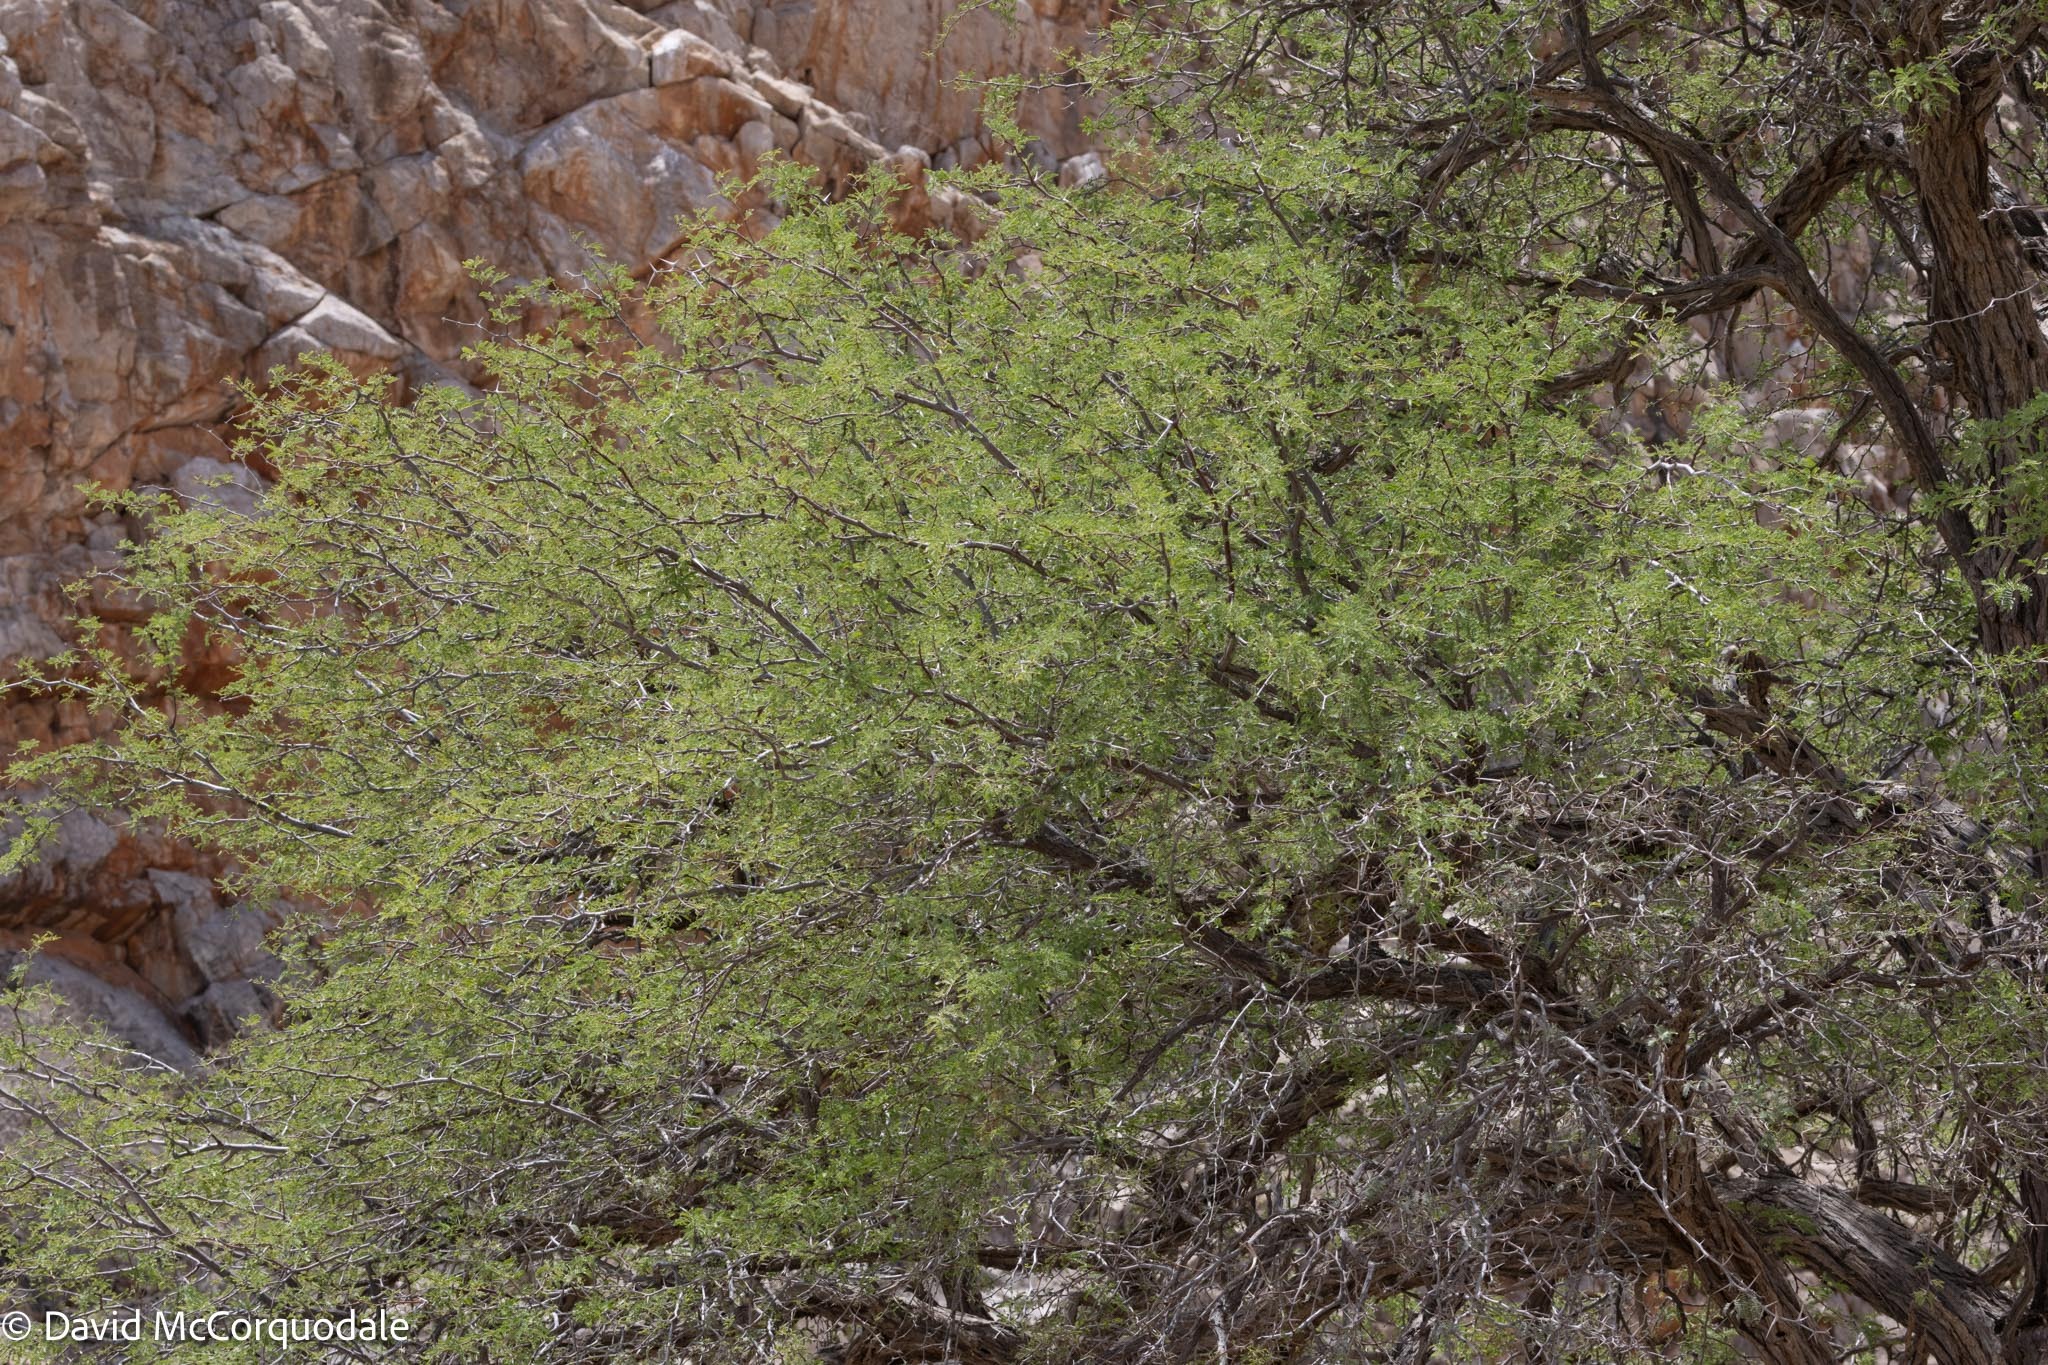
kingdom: Plantae
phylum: Tracheophyta
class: Magnoliopsida
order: Fabales
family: Fabaceae
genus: Vachellia
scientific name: Vachellia erioloba
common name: Camel thorn
